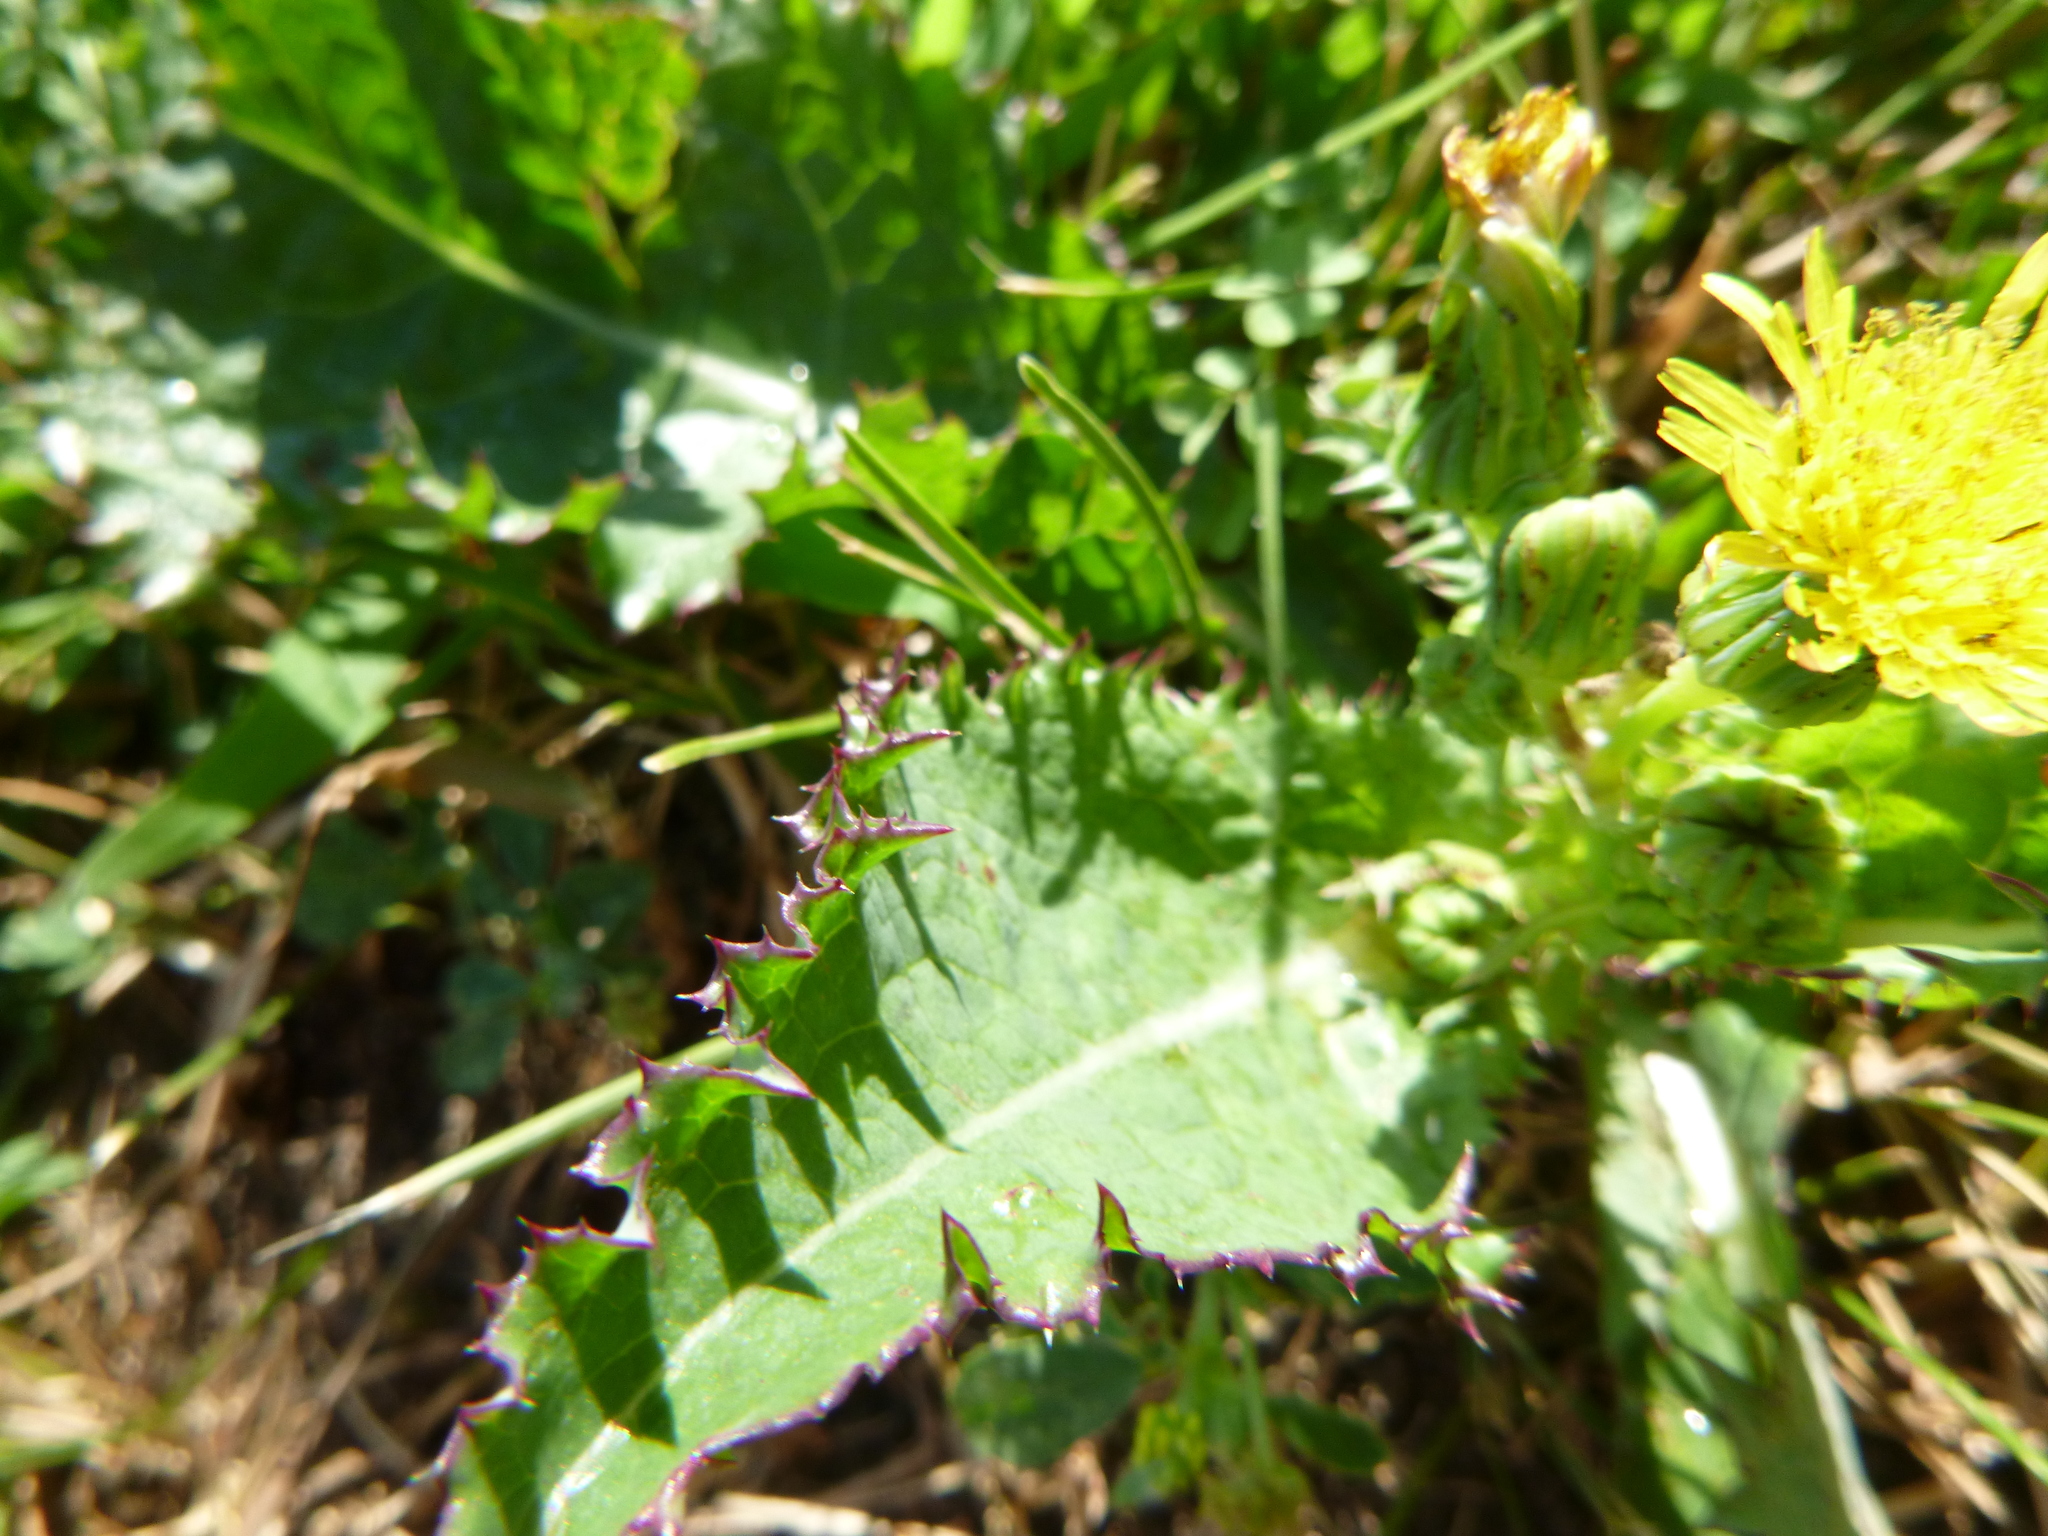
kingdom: Plantae
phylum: Tracheophyta
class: Magnoliopsida
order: Asterales
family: Asteraceae
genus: Sonchus
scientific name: Sonchus asper
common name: Prickly sow-thistle
